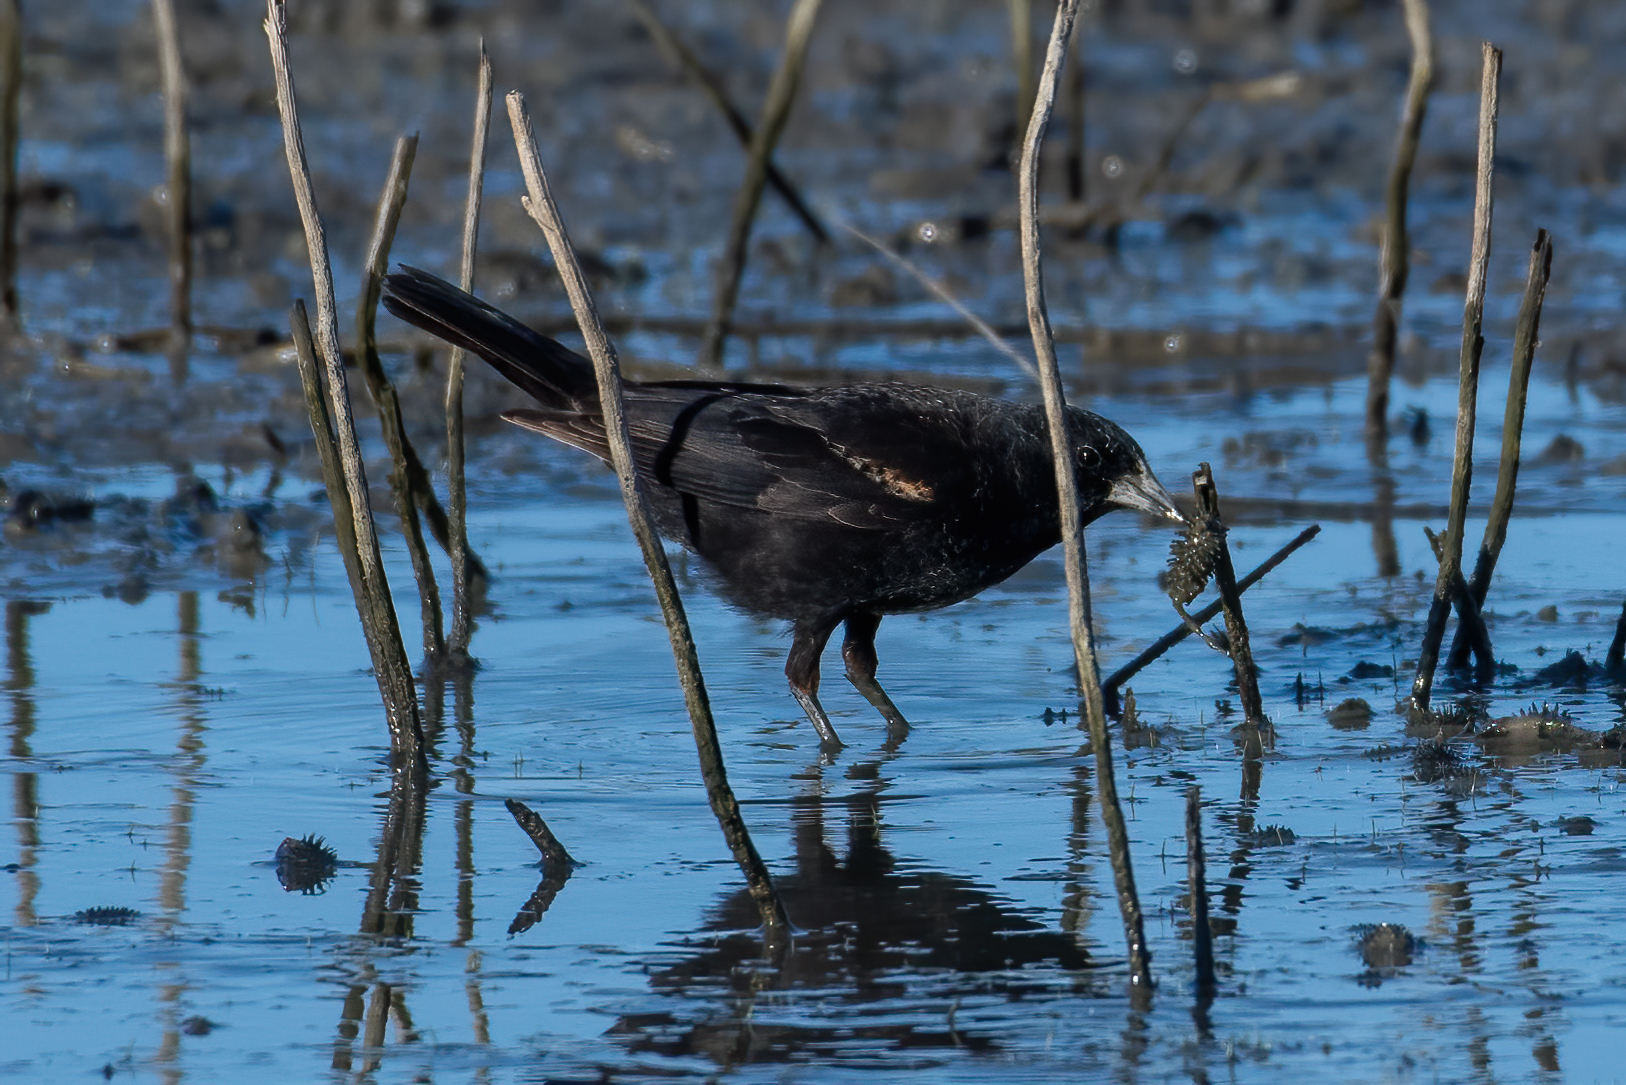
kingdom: Animalia
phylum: Chordata
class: Aves
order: Passeriformes
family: Icteridae
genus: Agelaius
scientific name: Agelaius phoeniceus
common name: Red-winged blackbird
